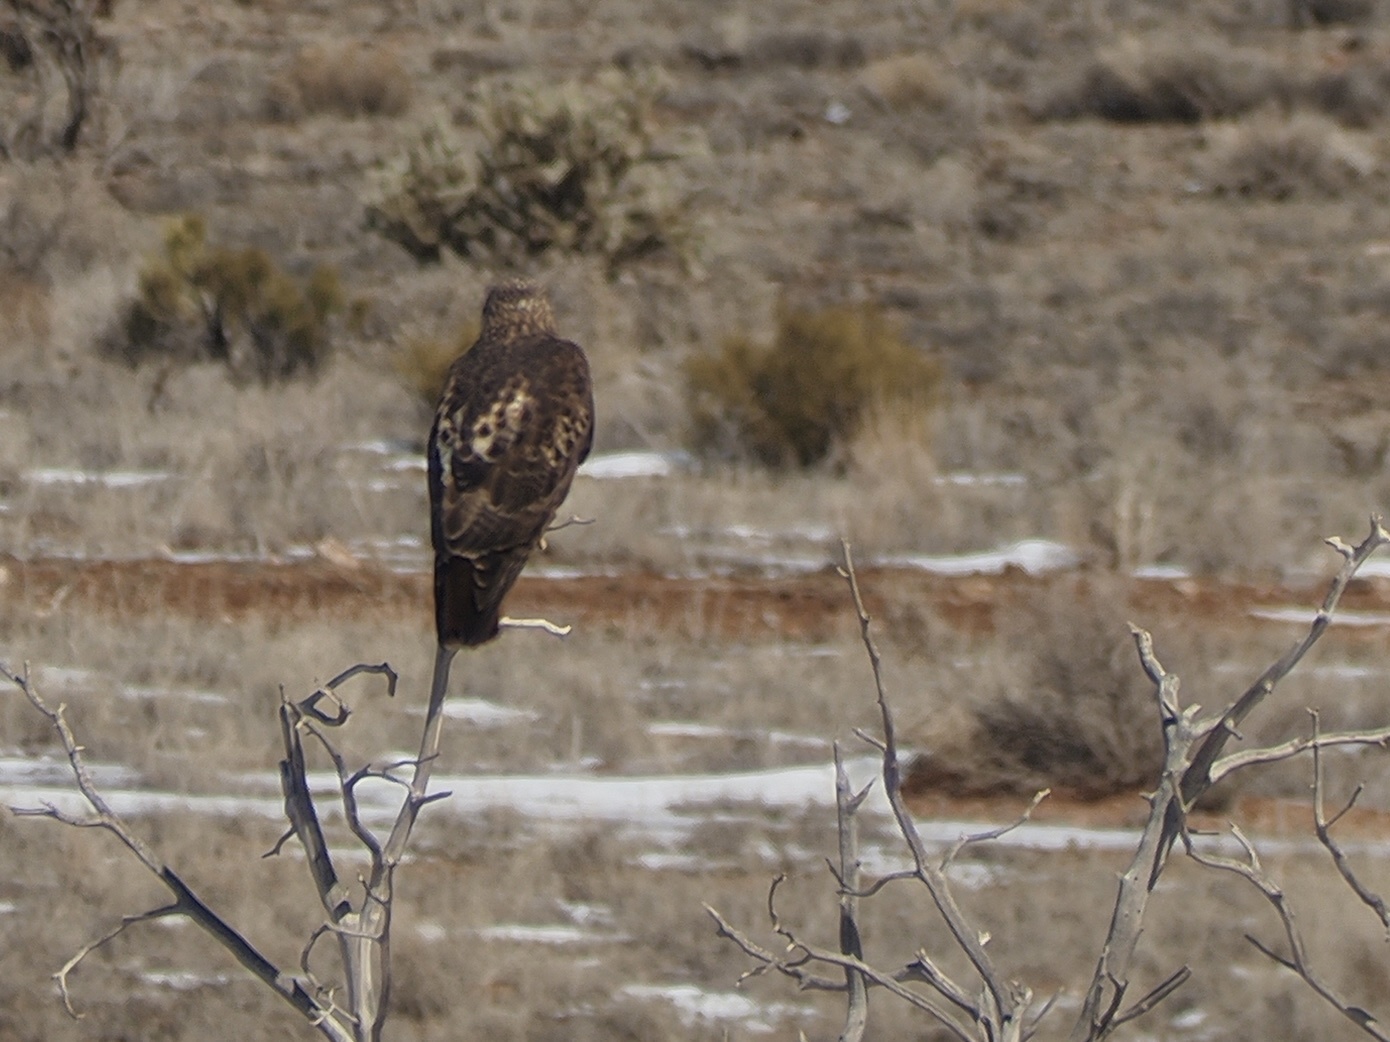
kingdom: Animalia
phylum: Chordata
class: Aves
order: Accipitriformes
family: Accipitridae
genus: Buteo
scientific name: Buteo jamaicensis
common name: Red-tailed hawk
